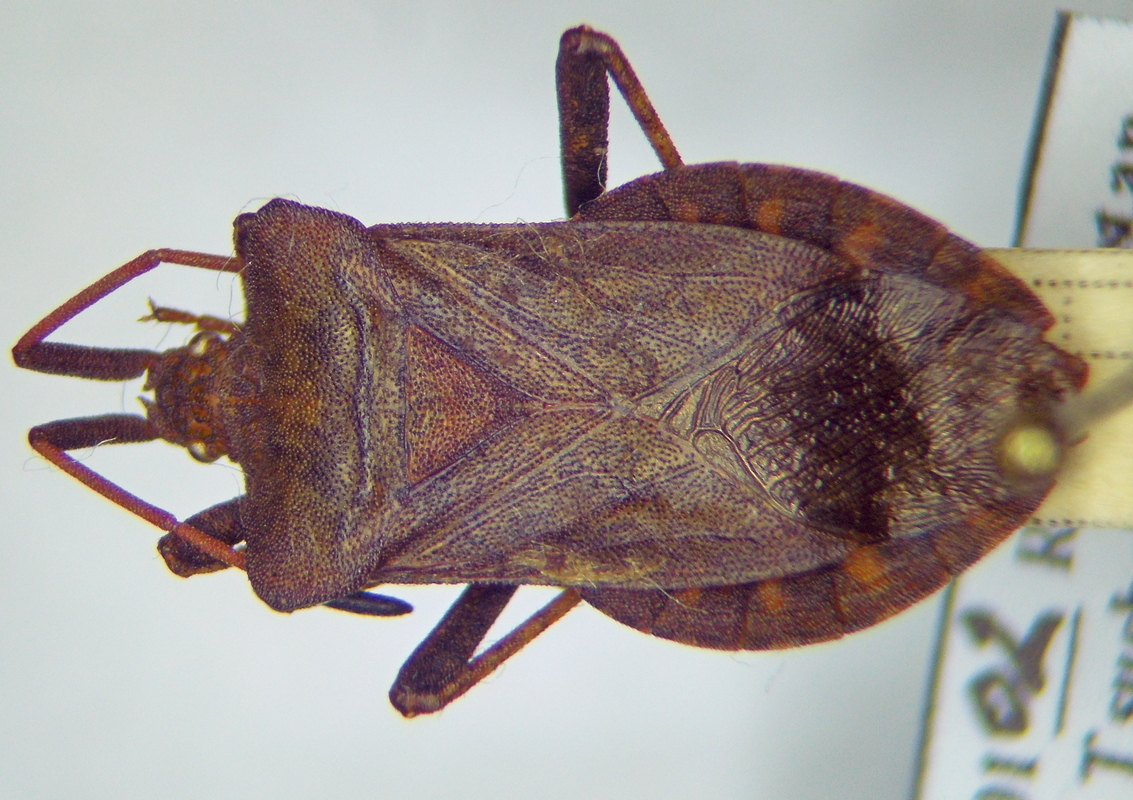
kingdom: Animalia
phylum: Arthropoda
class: Insecta
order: Hemiptera
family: Coreidae
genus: Coreus
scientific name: Coreus marginatus
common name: Dock bug
